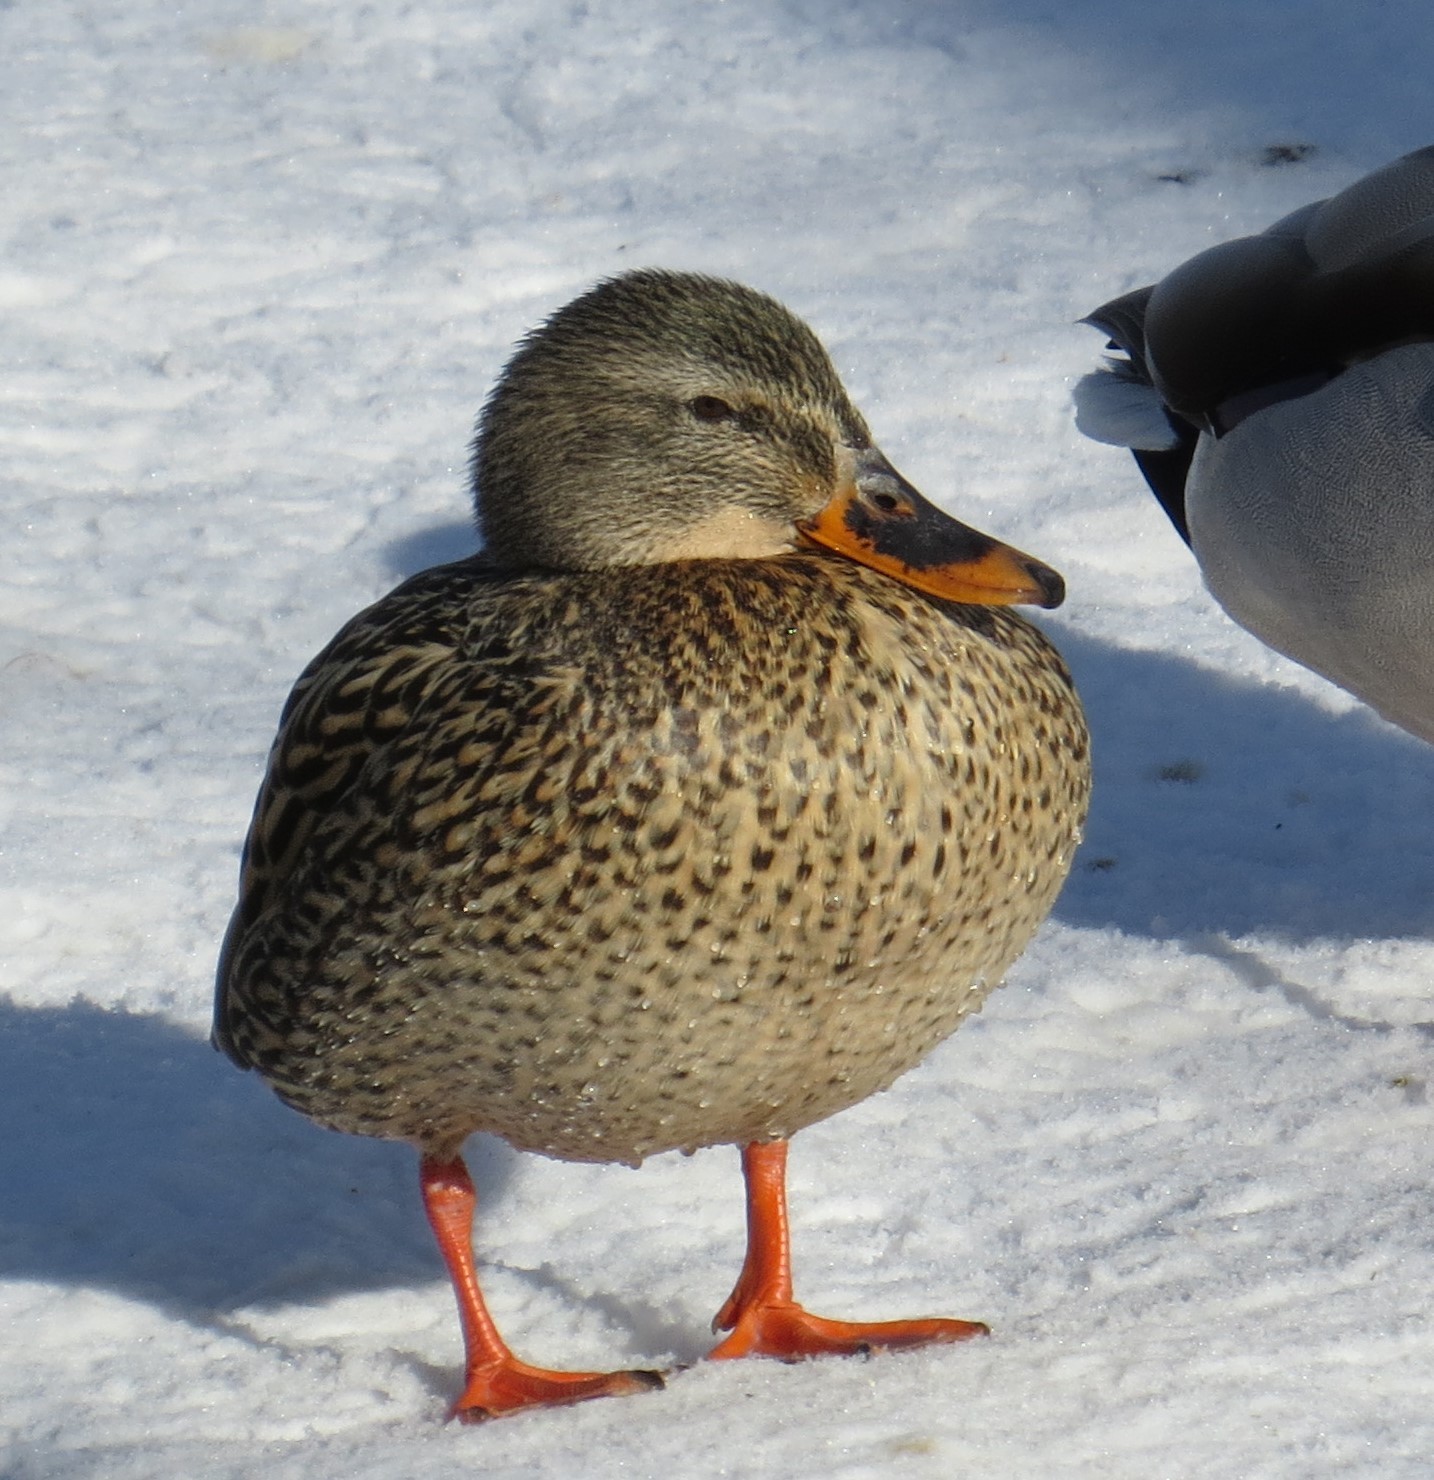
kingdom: Animalia
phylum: Chordata
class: Aves
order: Anseriformes
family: Anatidae
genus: Anas
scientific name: Anas platyrhynchos
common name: Mallard
